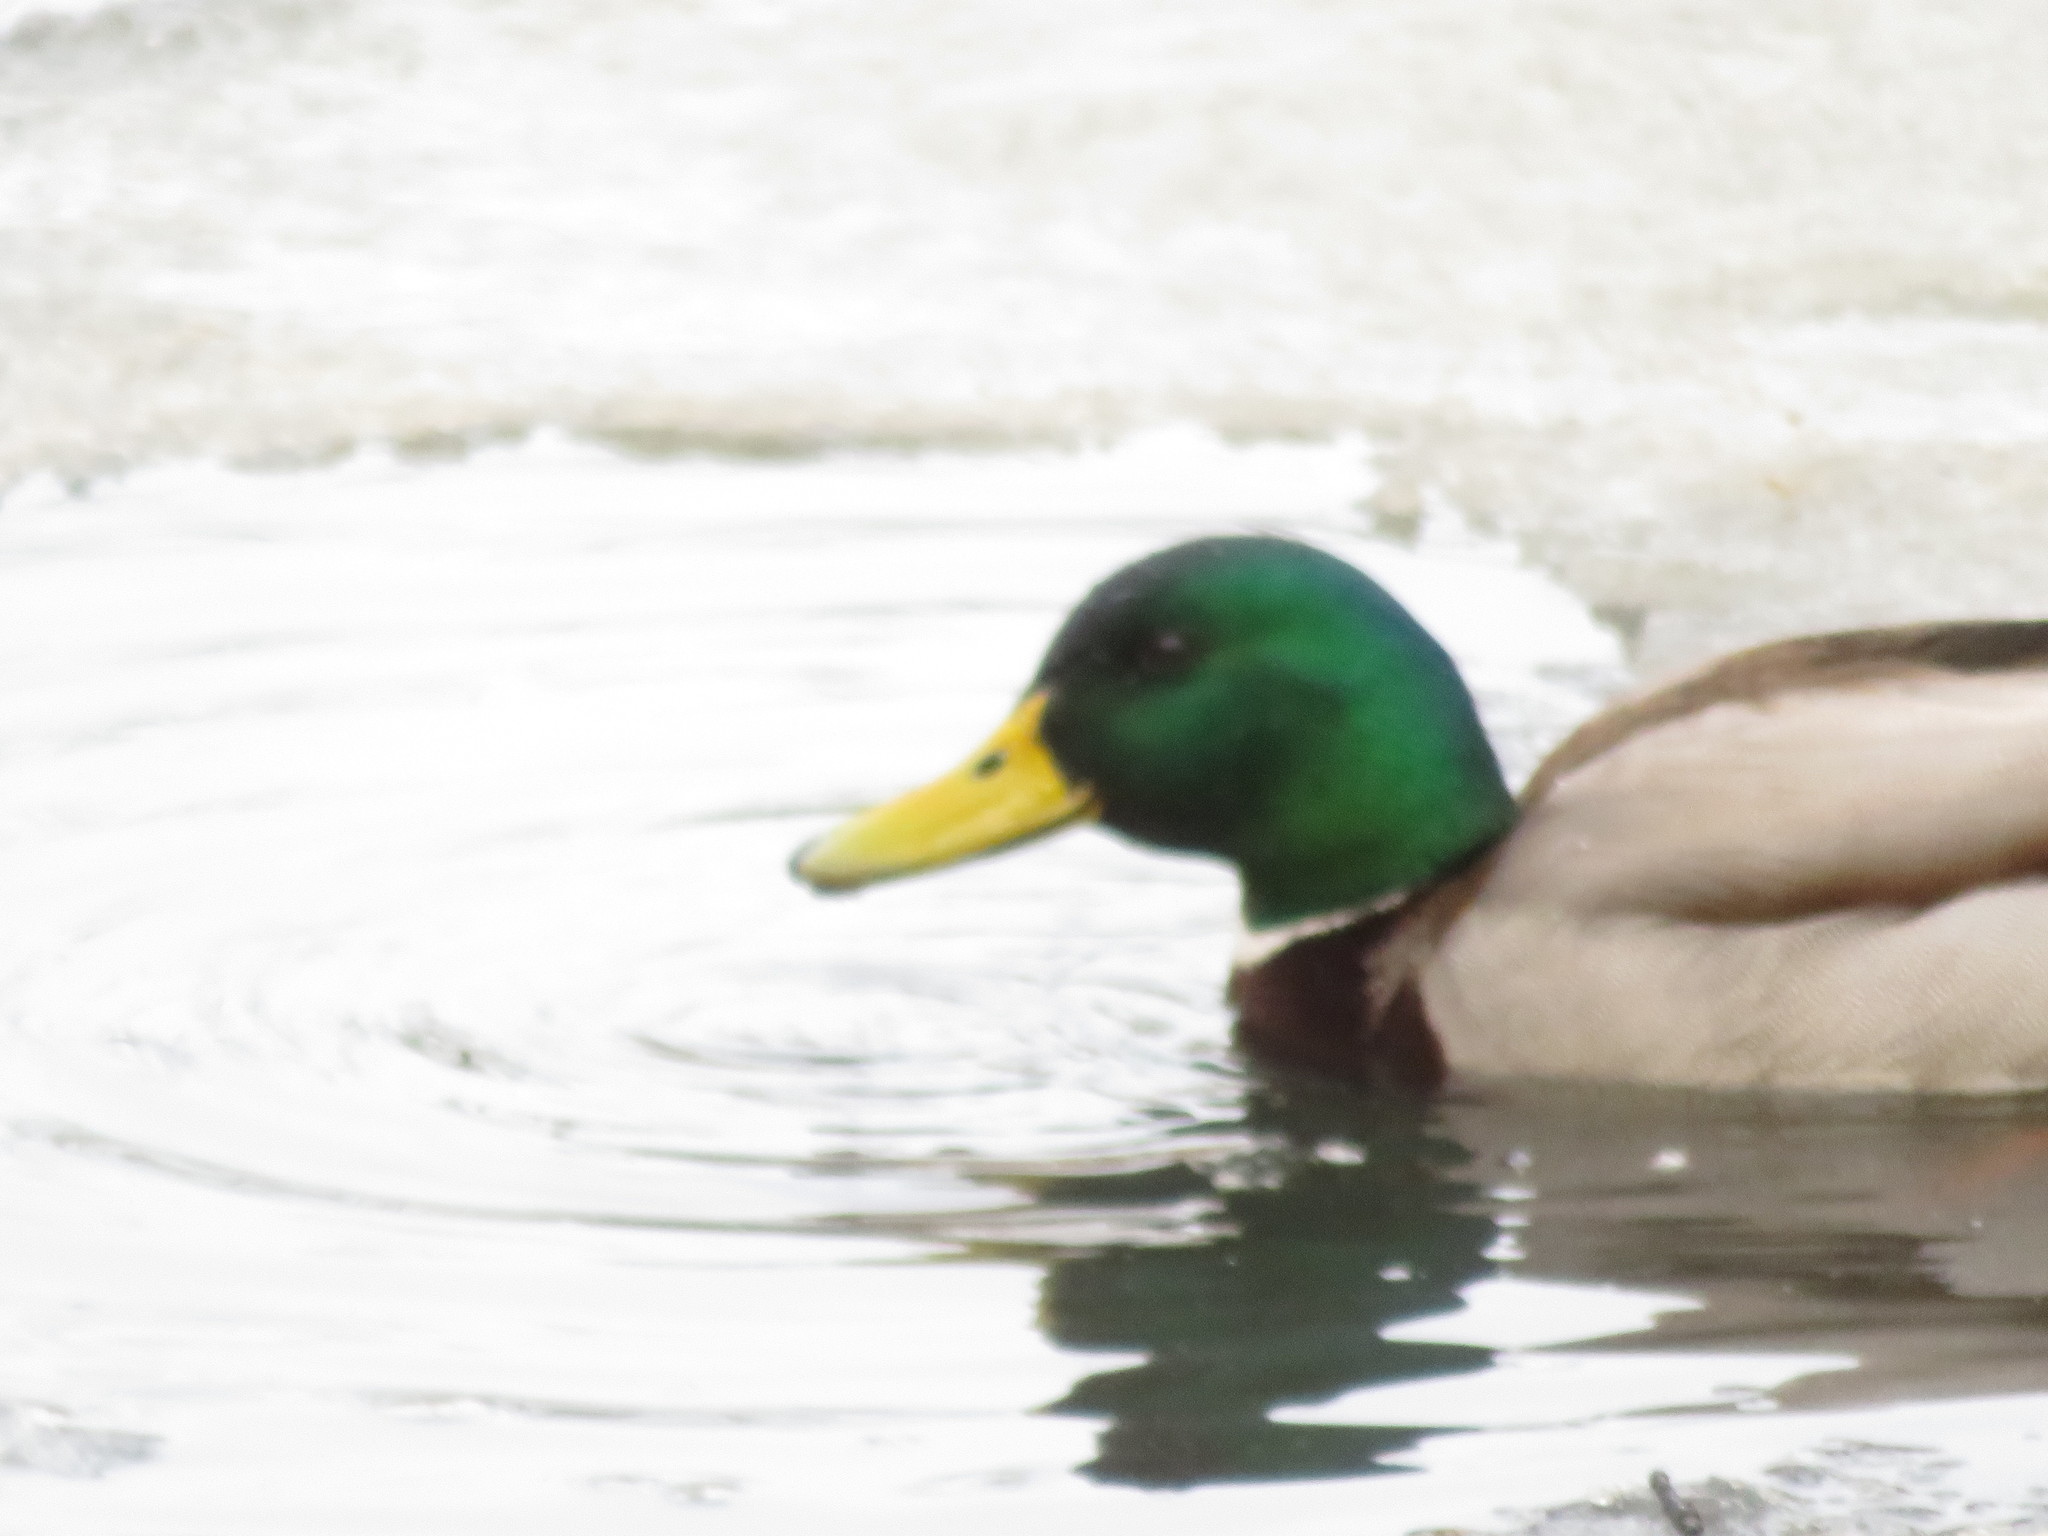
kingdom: Animalia
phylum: Chordata
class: Aves
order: Anseriformes
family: Anatidae
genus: Anas
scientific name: Anas platyrhynchos
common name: Mallard
